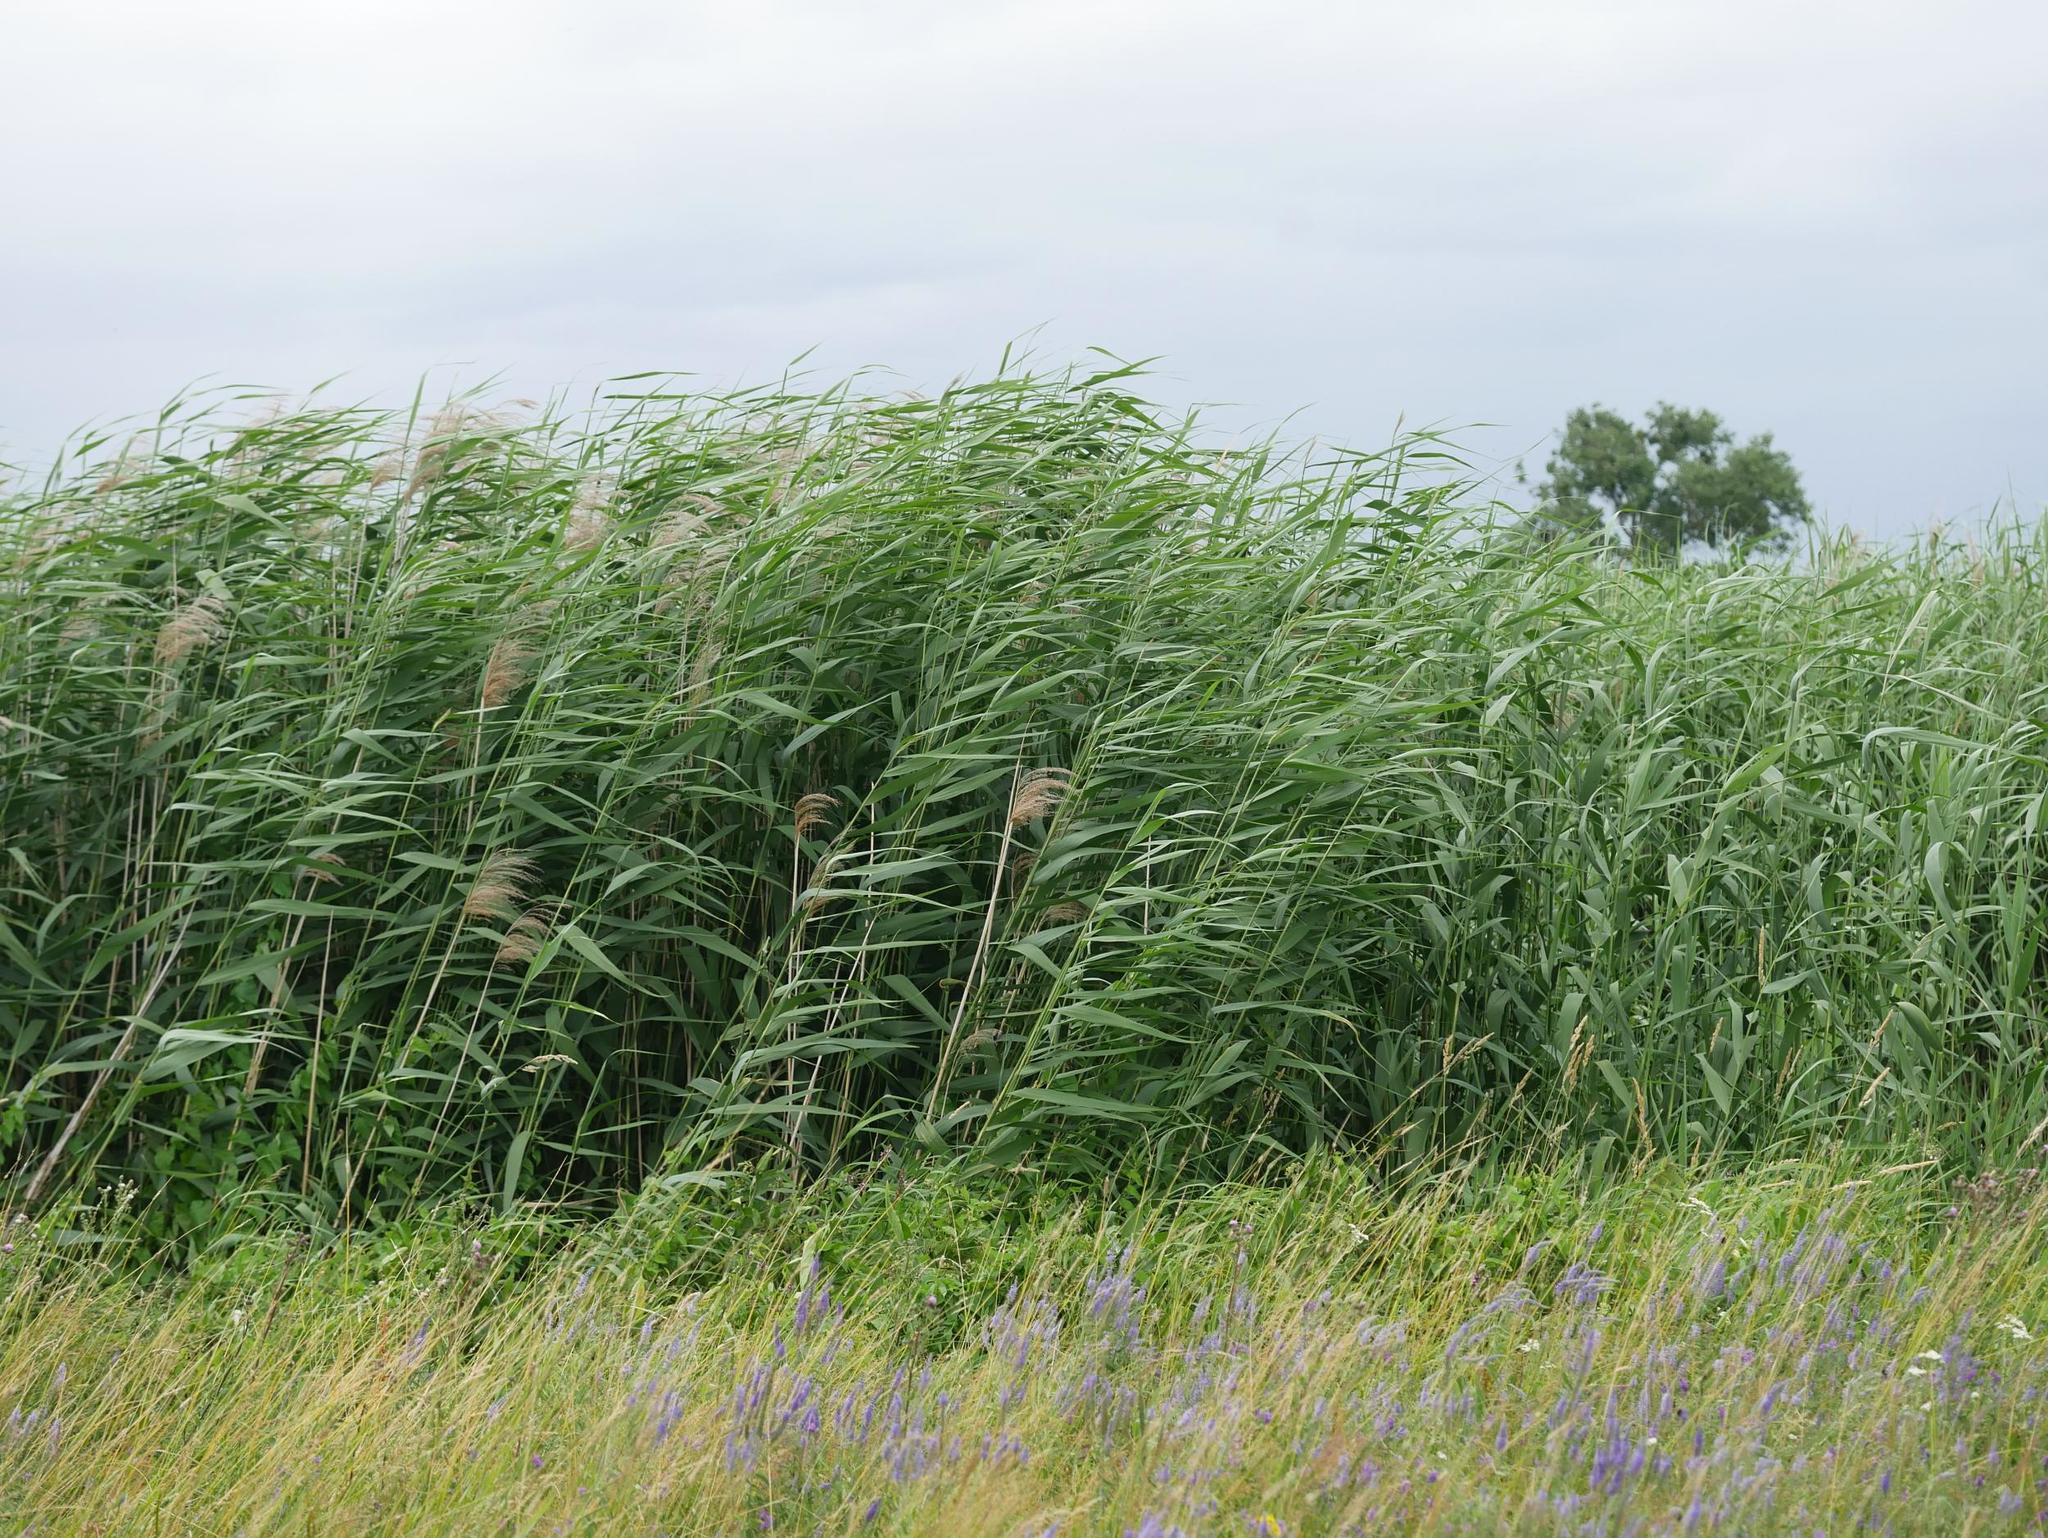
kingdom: Plantae
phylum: Tracheophyta
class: Liliopsida
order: Poales
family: Poaceae
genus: Phragmites
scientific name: Phragmites australis
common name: Common reed
